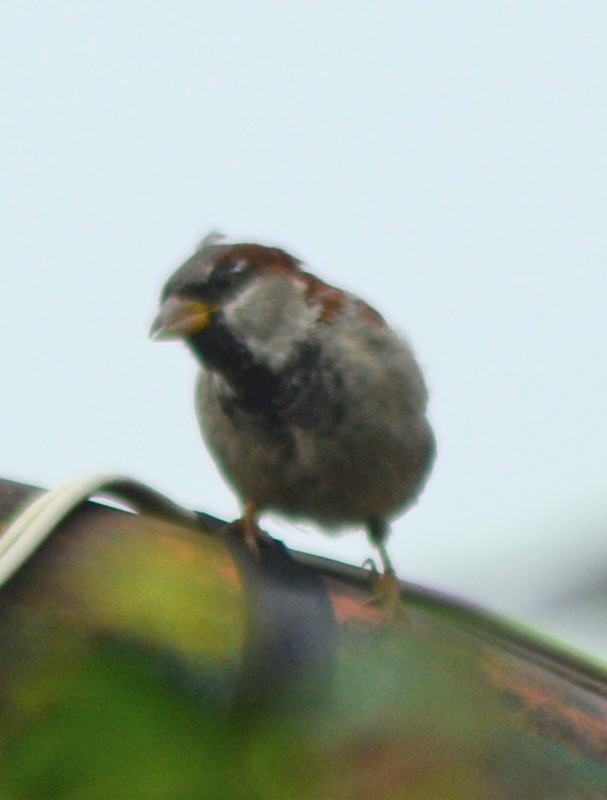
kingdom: Animalia
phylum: Chordata
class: Aves
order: Passeriformes
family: Passeridae
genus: Passer
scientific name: Passer domesticus
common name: House sparrow
